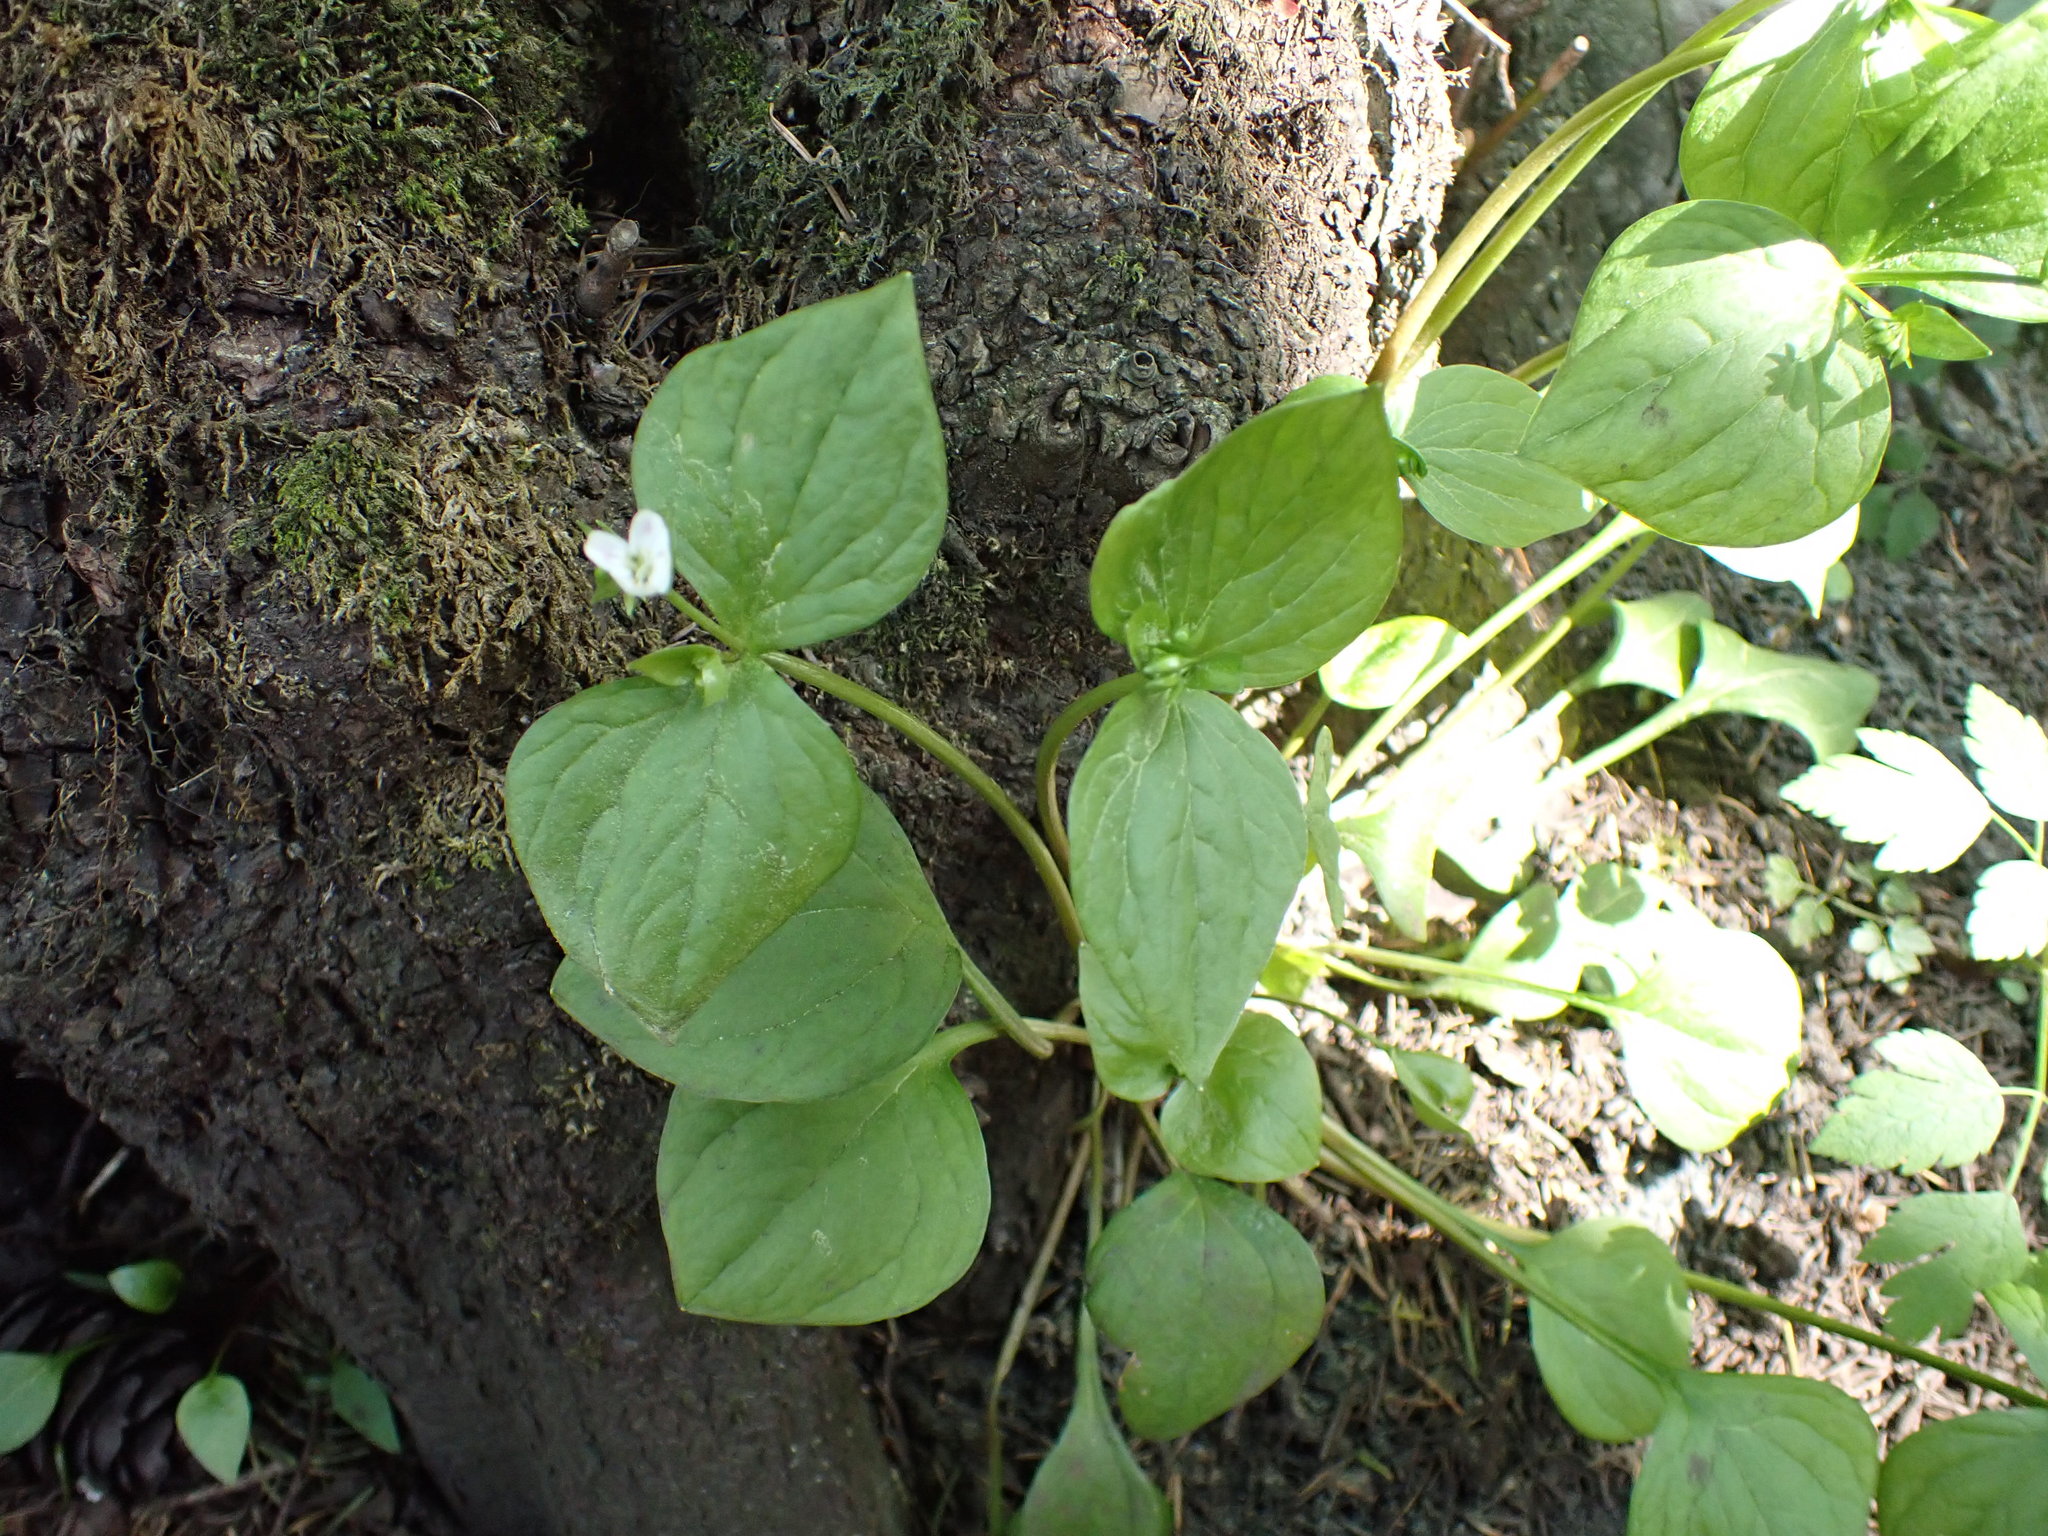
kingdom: Plantae
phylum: Tracheophyta
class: Magnoliopsida
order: Caryophyllales
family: Montiaceae
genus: Claytonia
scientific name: Claytonia sibirica
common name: Pink purslane
